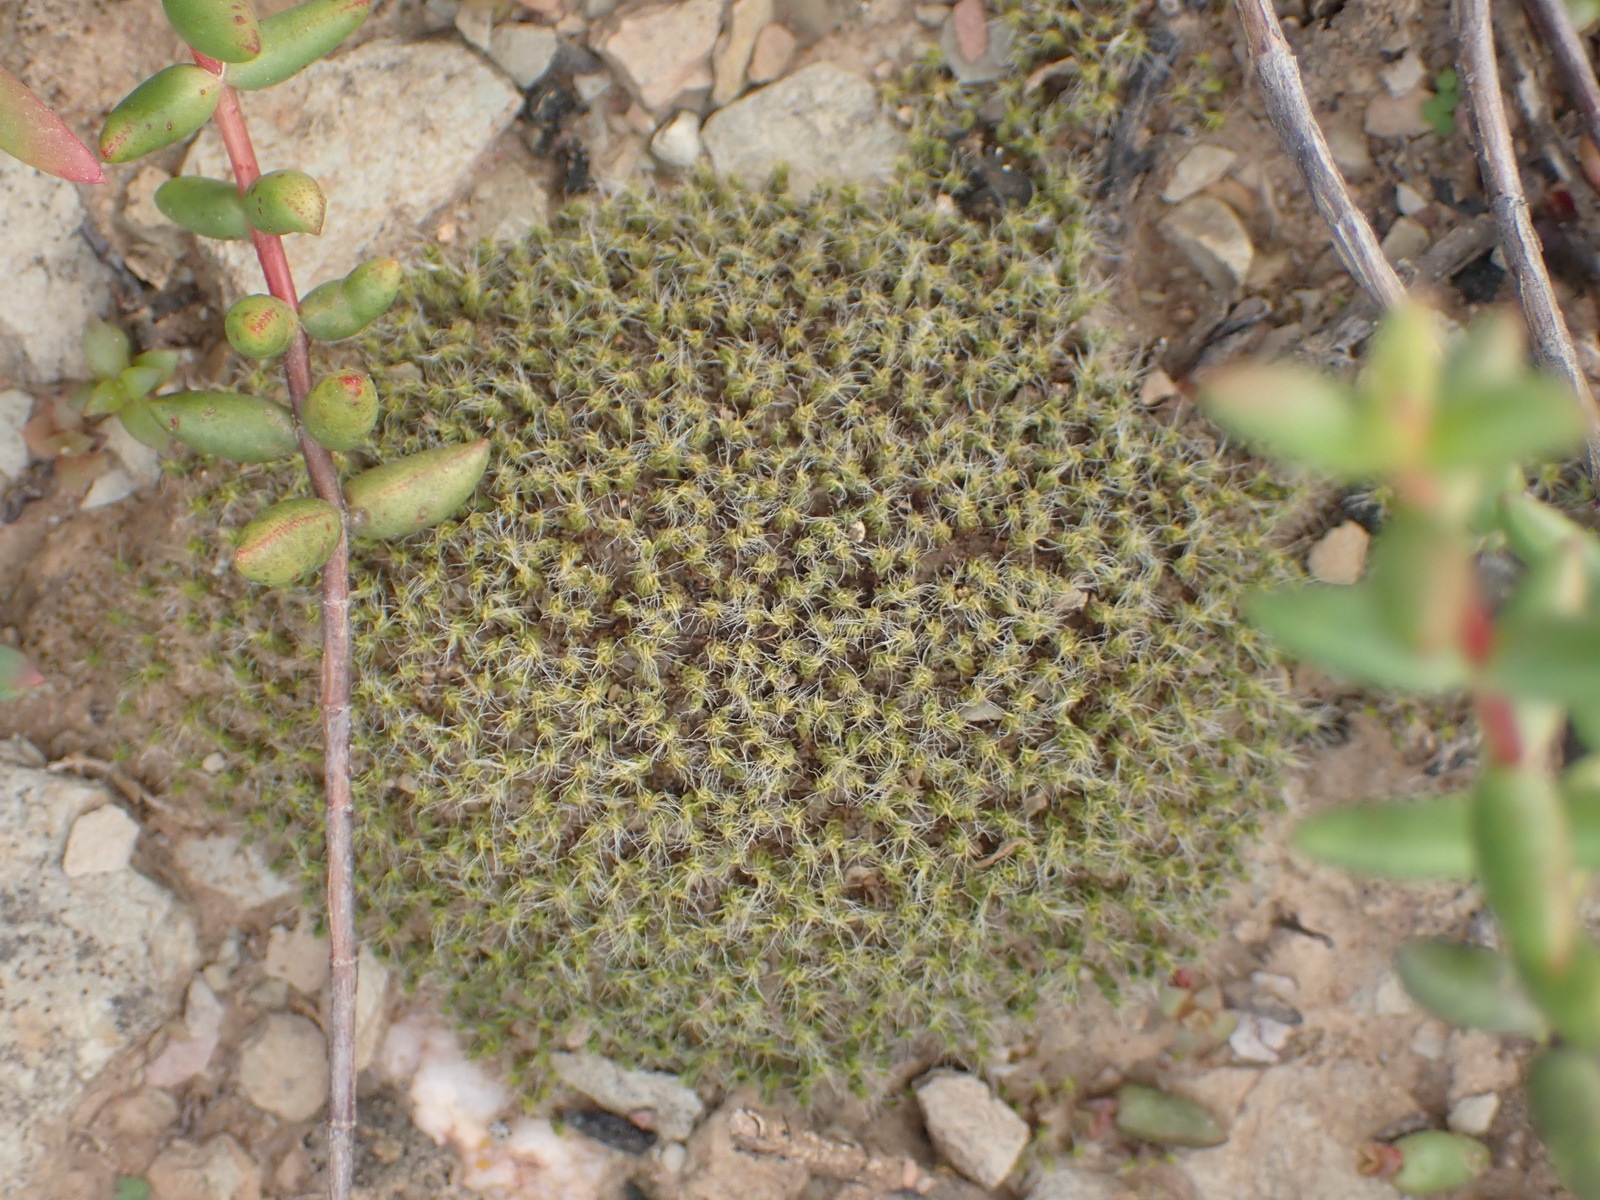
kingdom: Plantae
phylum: Bryophyta
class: Bryopsida
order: Pottiales
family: Pottiaceae
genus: Pseudocrossidium
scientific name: Pseudocrossidium crinitum
